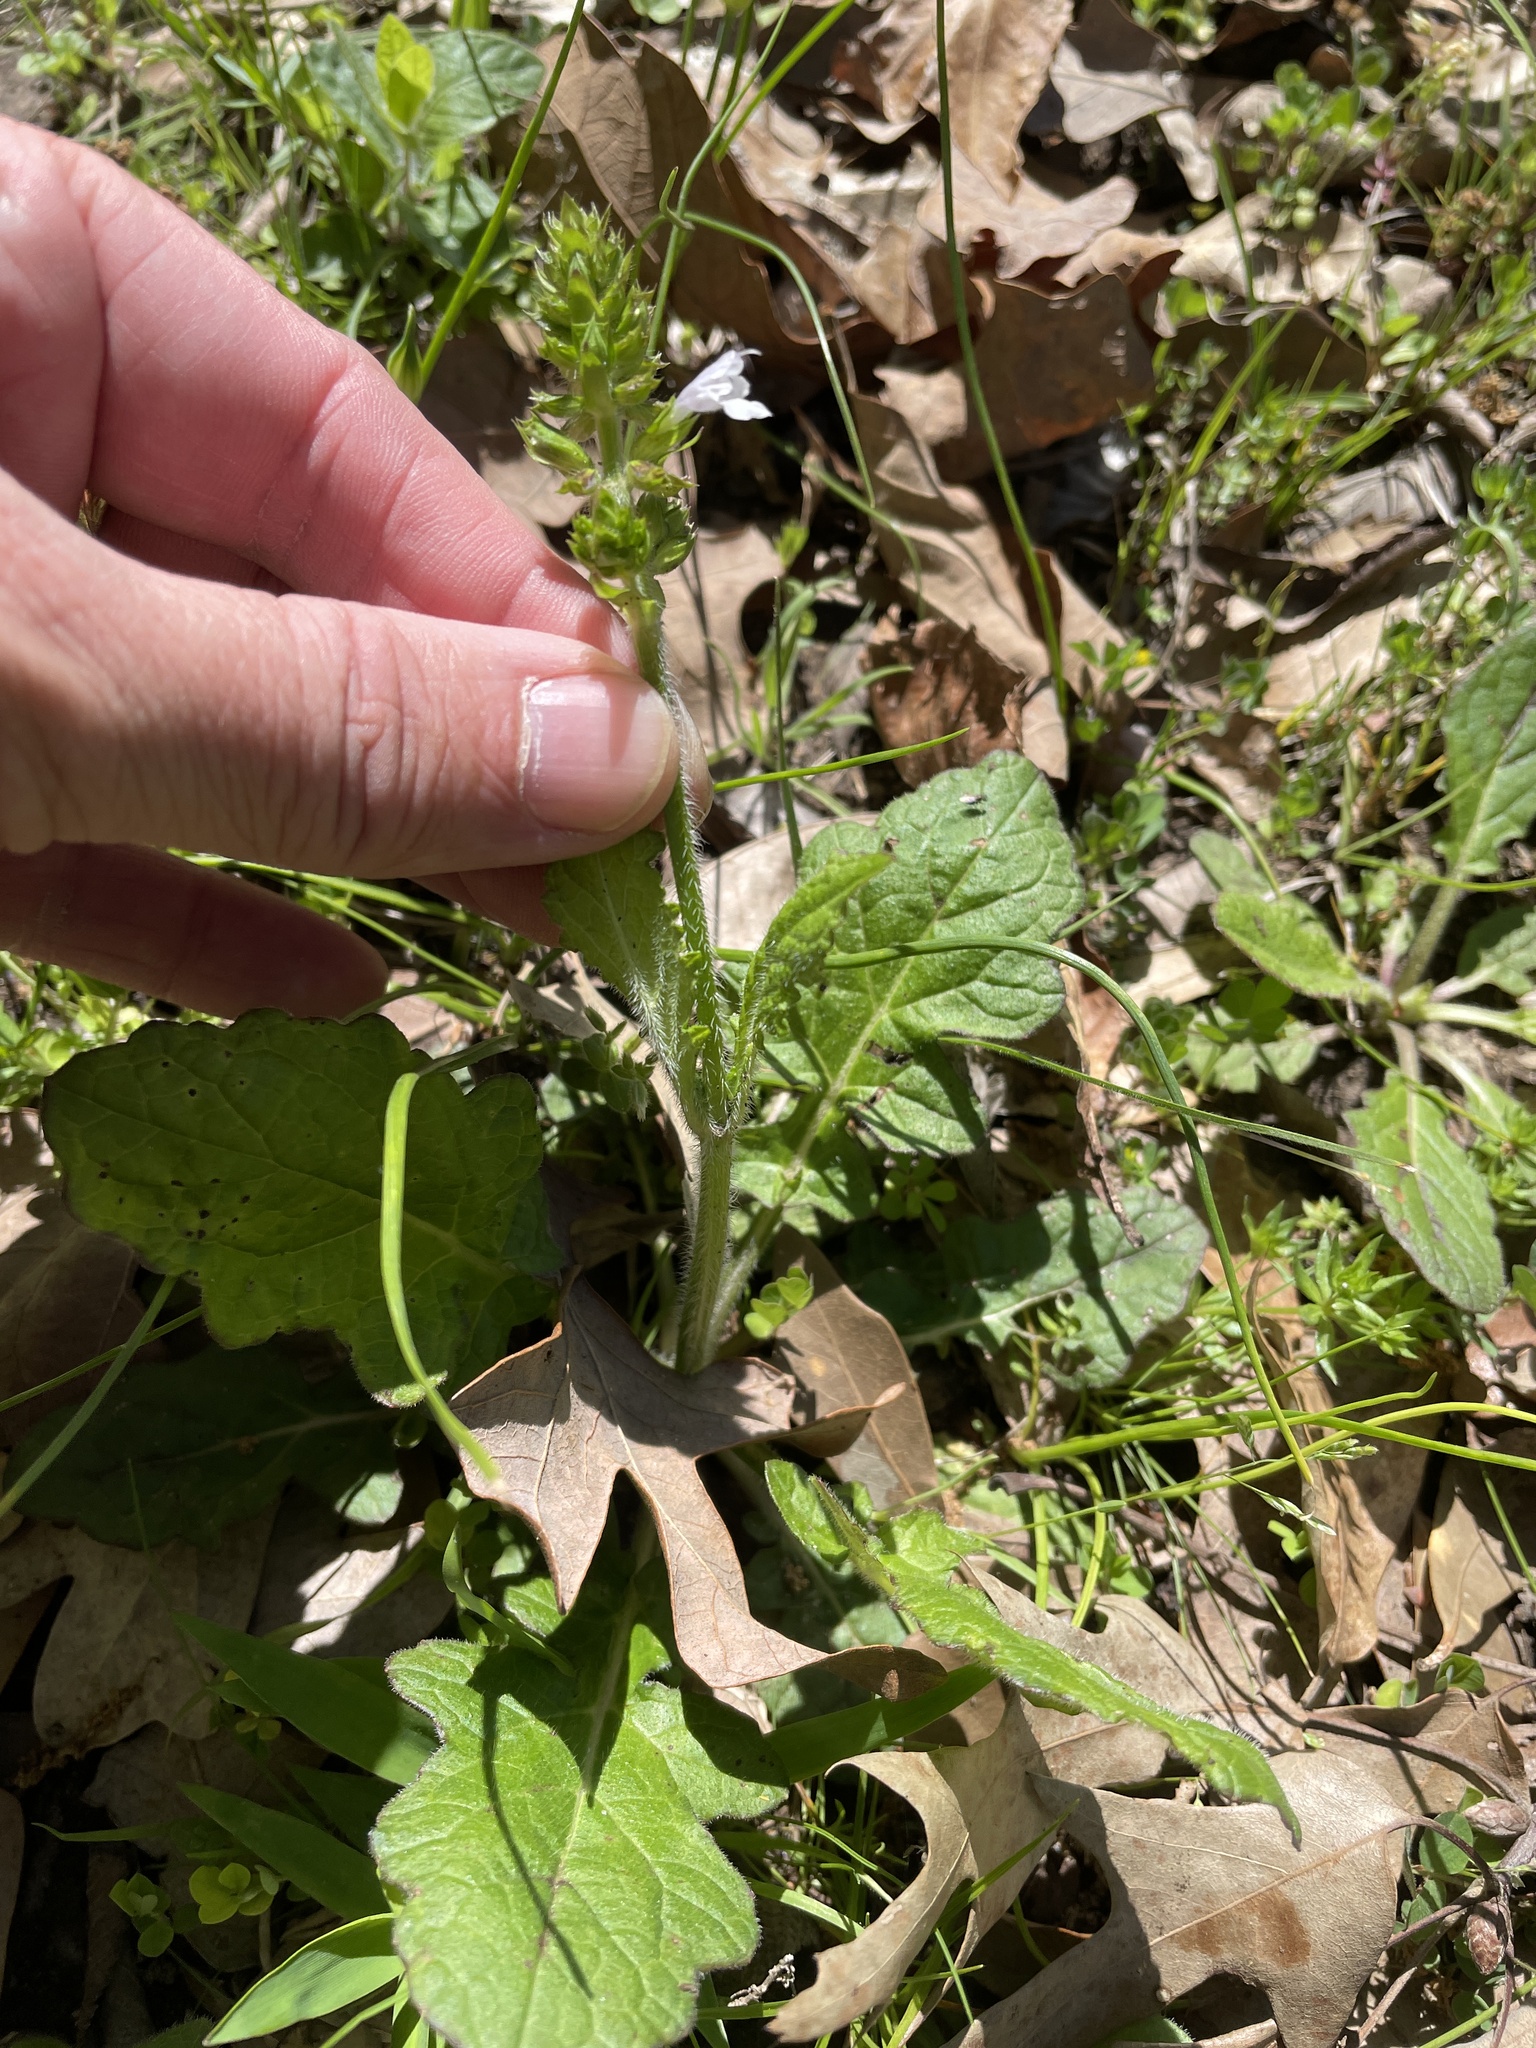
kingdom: Plantae
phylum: Tracheophyta
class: Magnoliopsida
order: Lamiales
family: Lamiaceae
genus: Salvia
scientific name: Salvia lyrata
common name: Cancerweed
